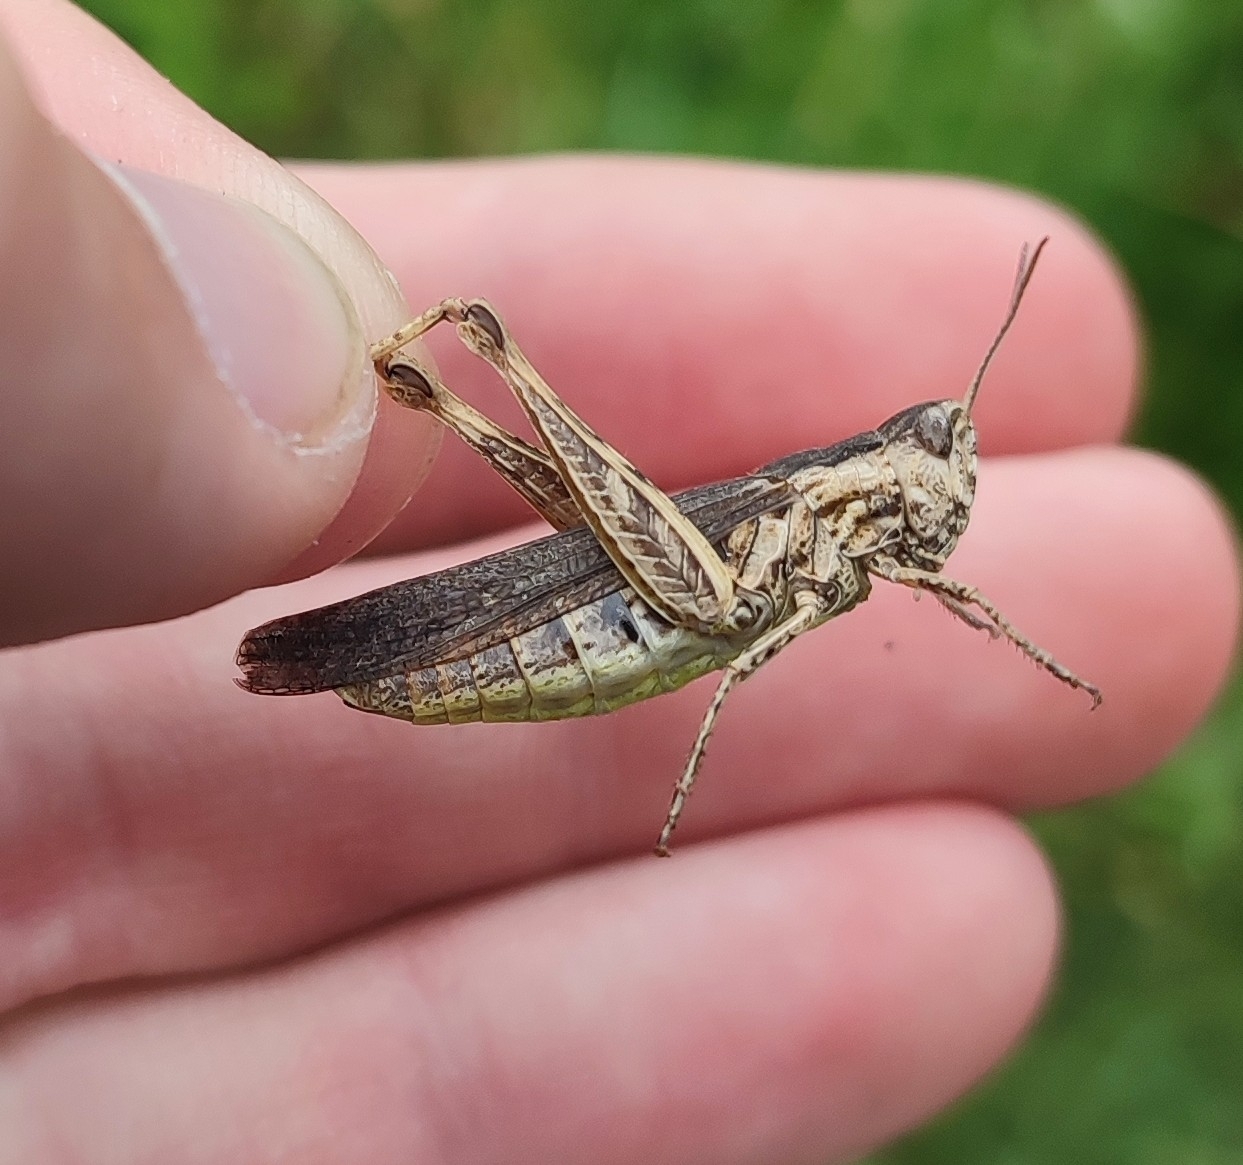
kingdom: Animalia
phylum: Arthropoda
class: Insecta
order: Orthoptera
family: Acrididae
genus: Chorthippus
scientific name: Chorthippus brunneus
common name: Field grasshopper
